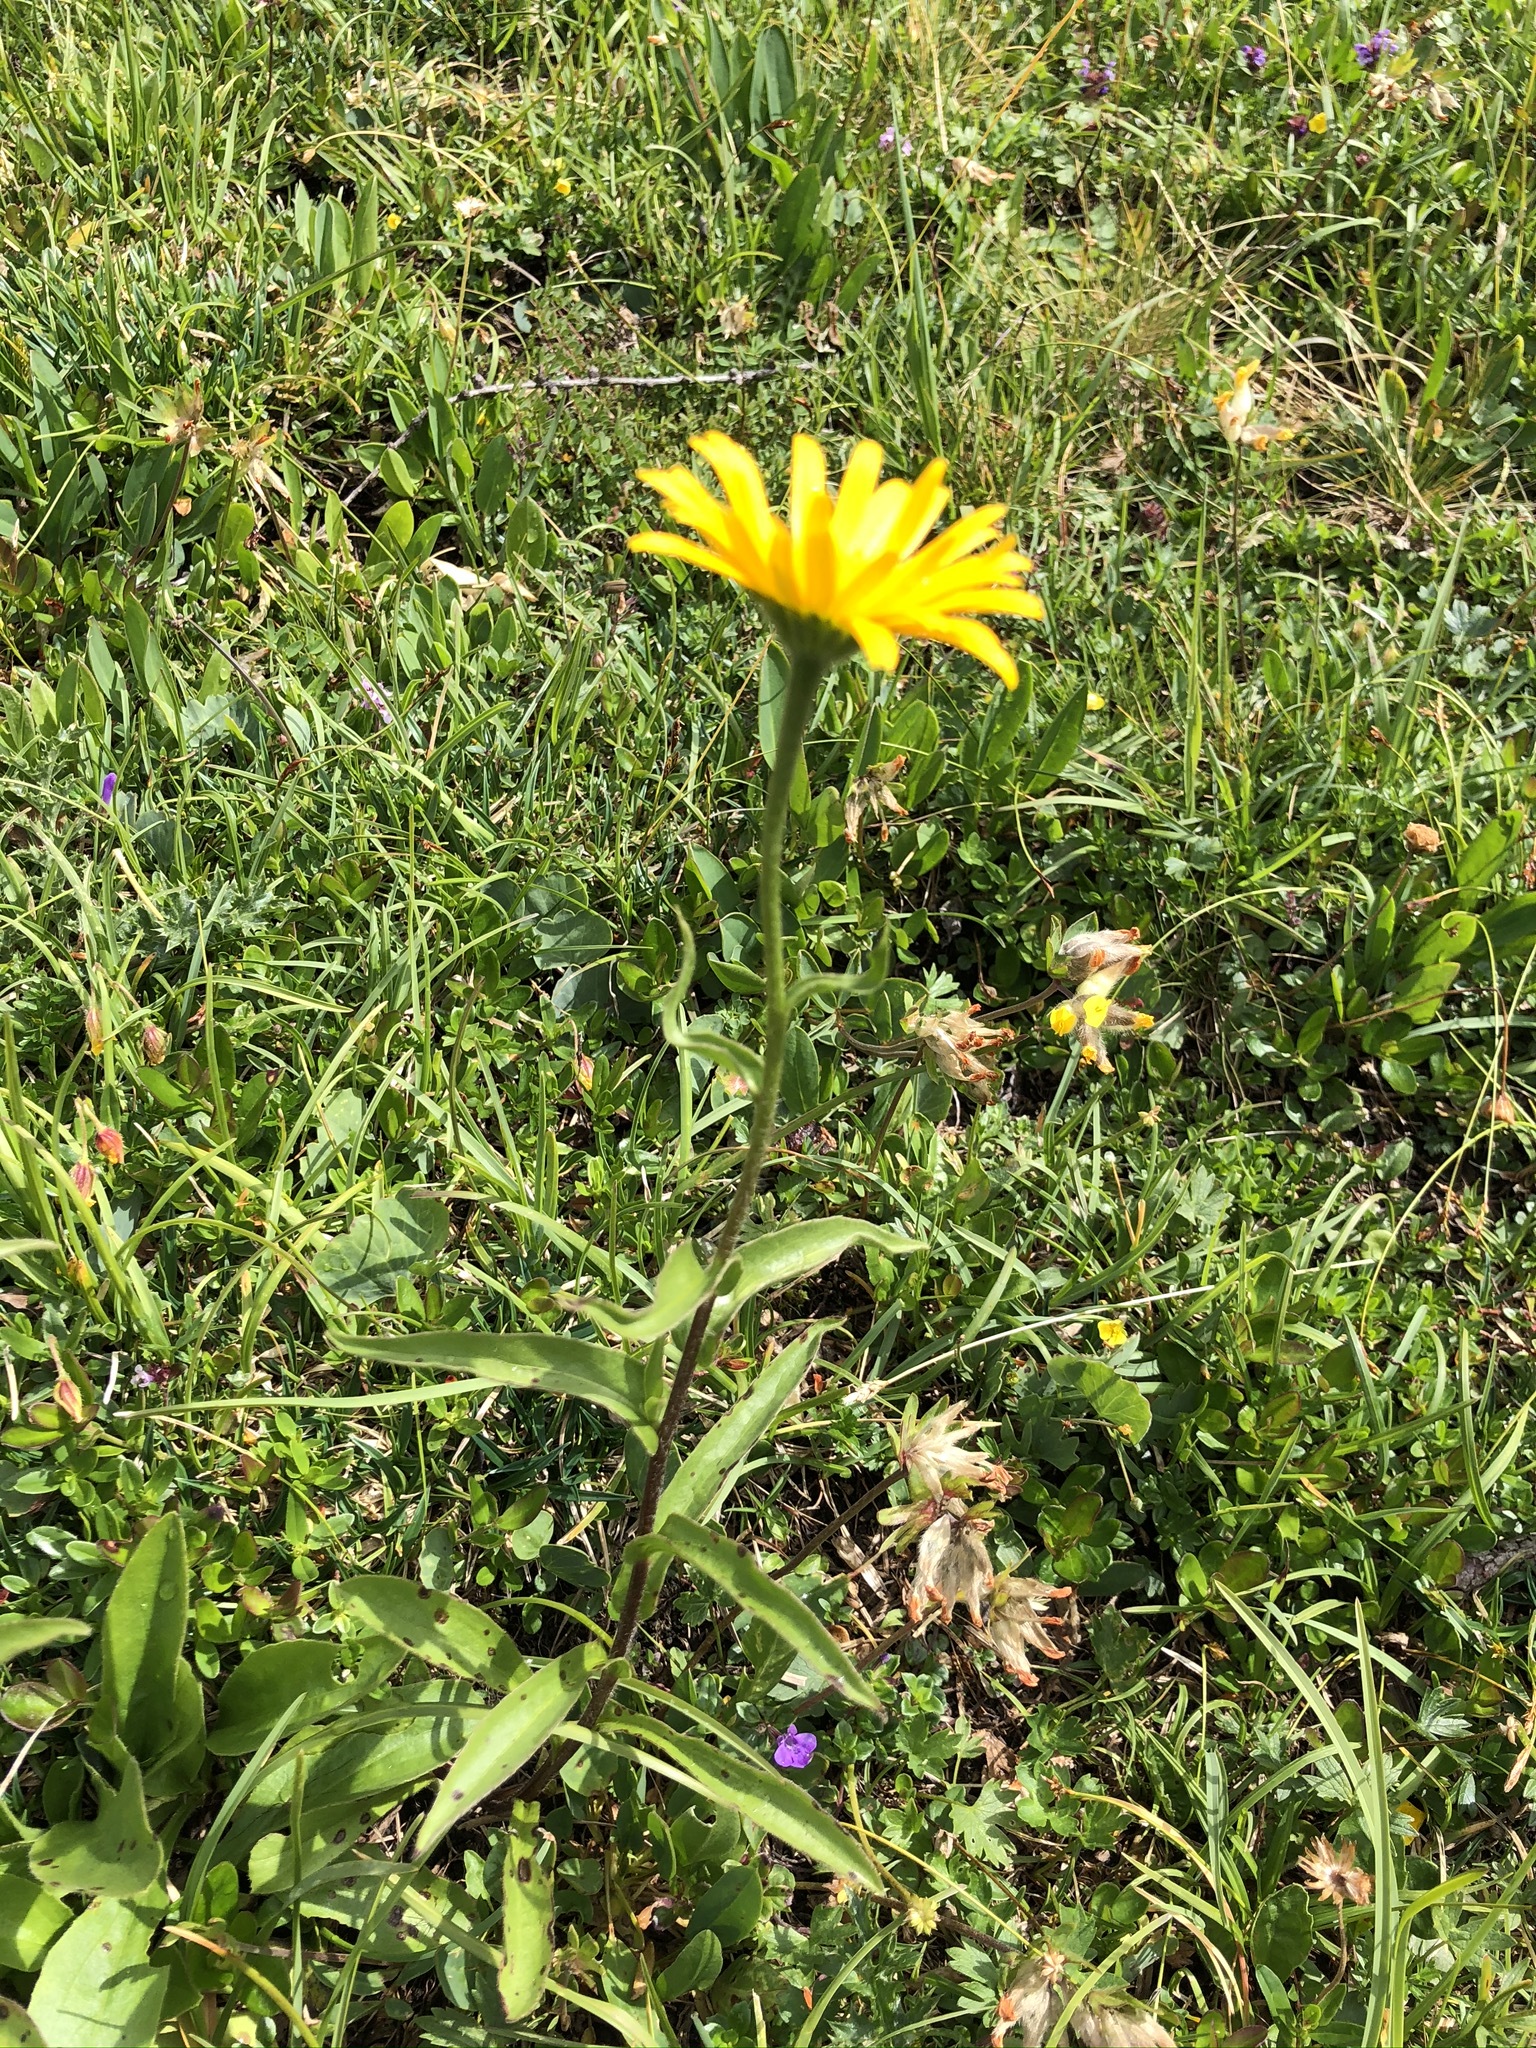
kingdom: Plantae
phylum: Tracheophyta
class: Magnoliopsida
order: Asterales
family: Asteraceae
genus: Buphthalmum
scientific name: Buphthalmum salicifolium
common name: Willow-leaved yellow-oxeye
